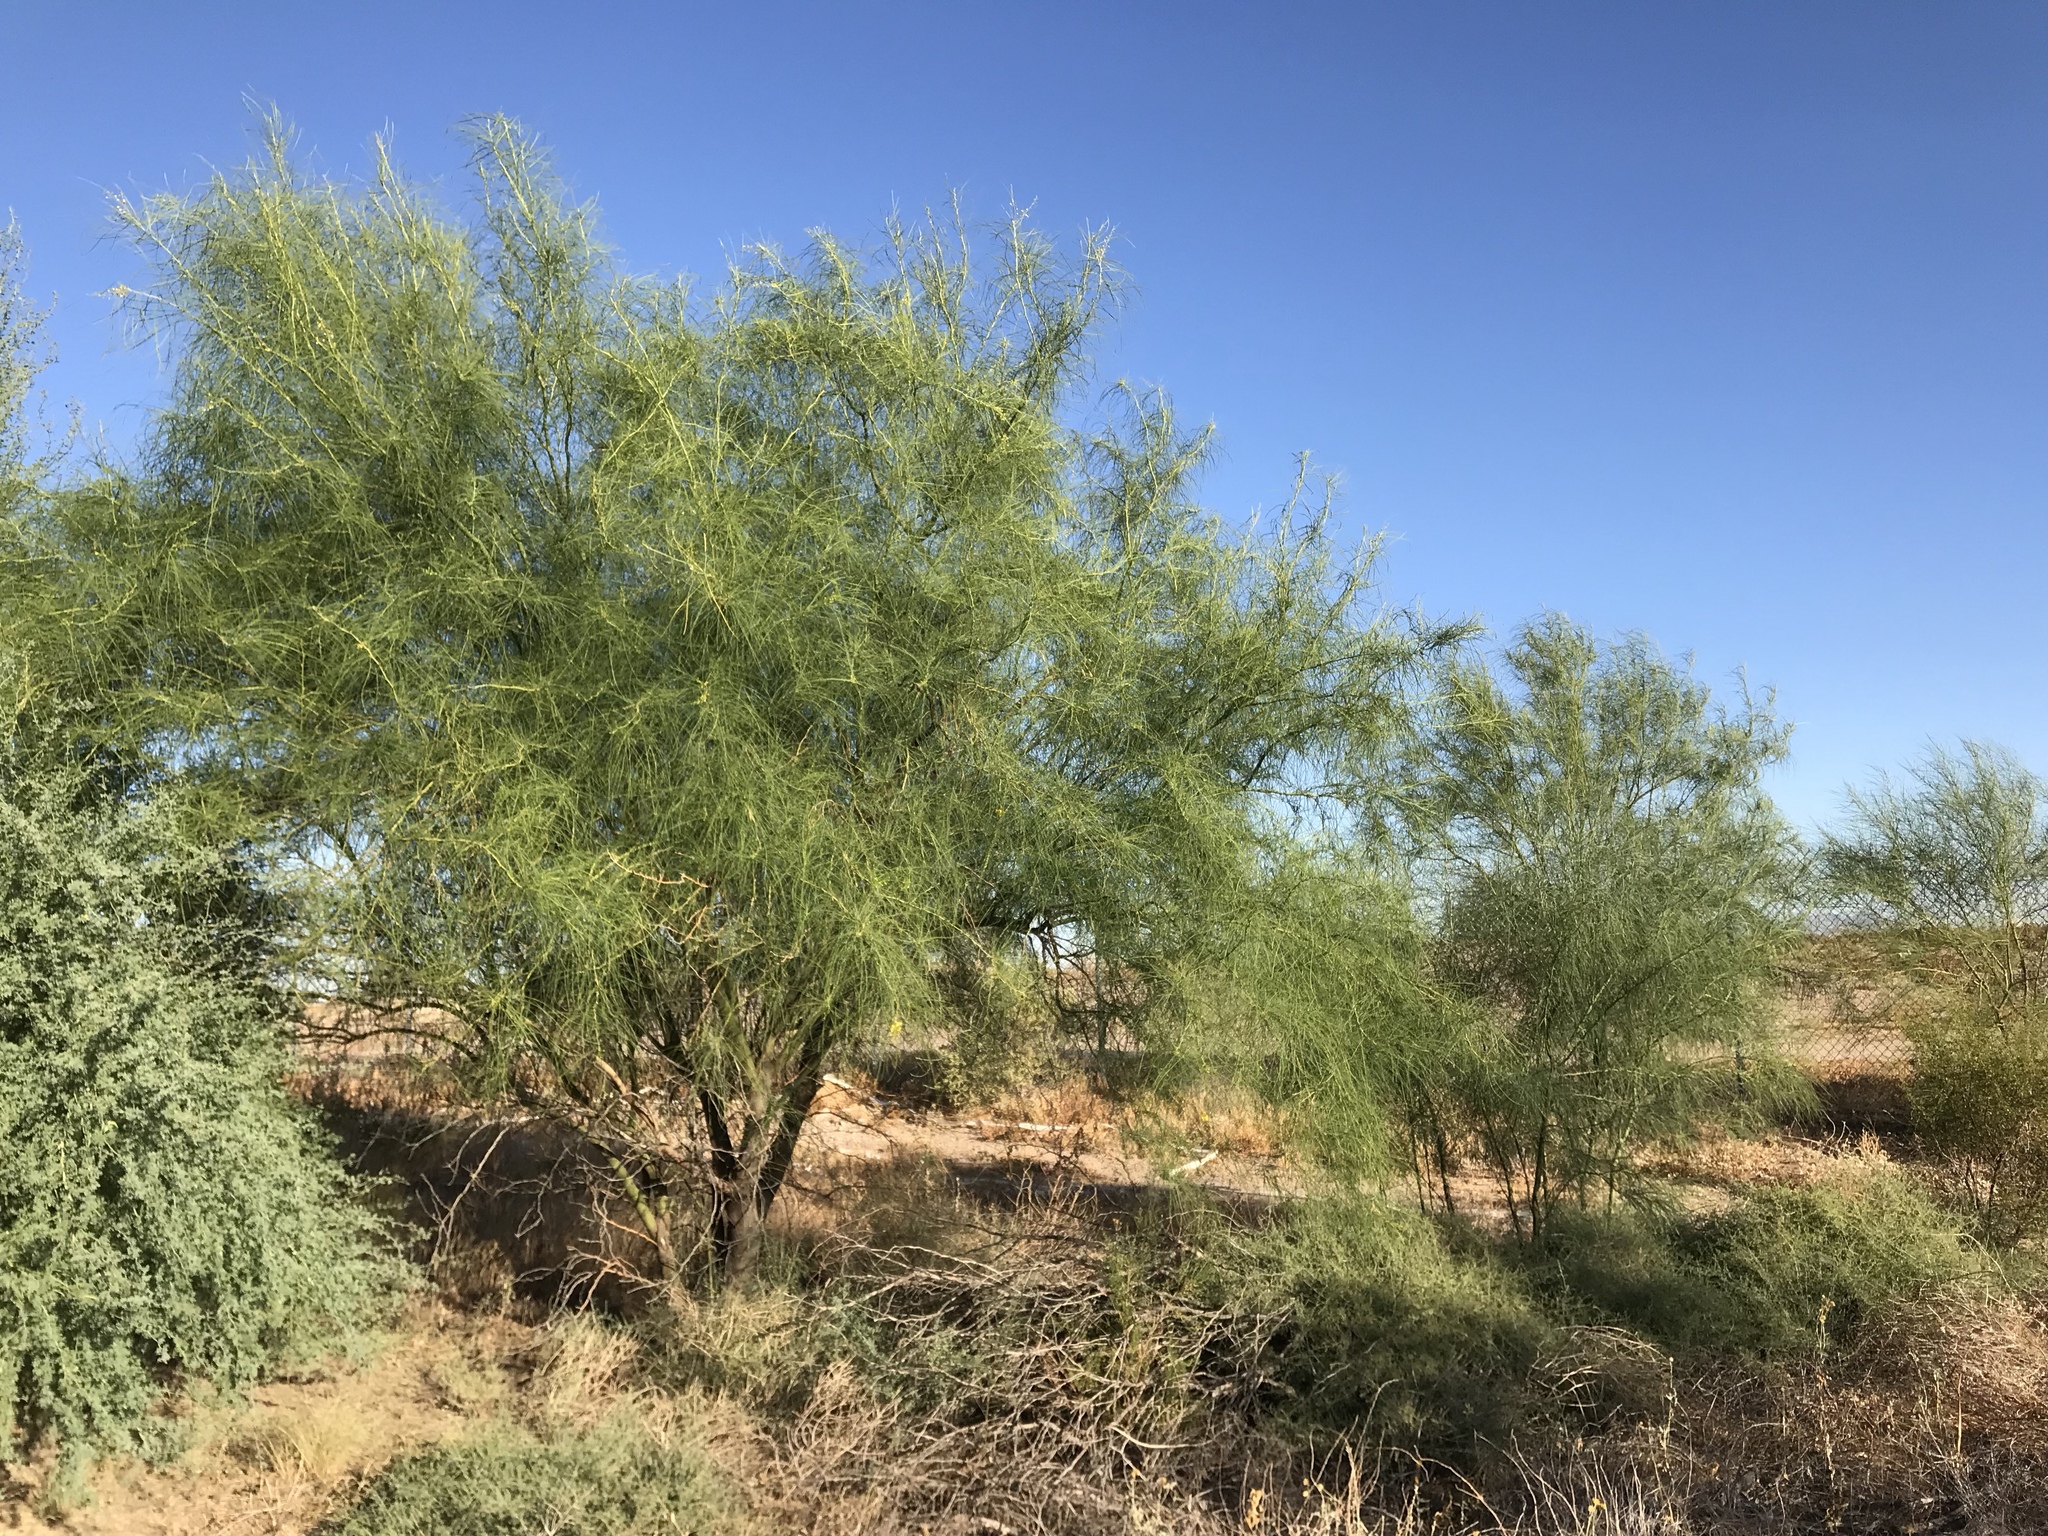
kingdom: Plantae
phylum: Tracheophyta
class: Magnoliopsida
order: Fabales
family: Fabaceae
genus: Parkinsonia
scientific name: Parkinsonia aculeata
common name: Jerusalem thorn
